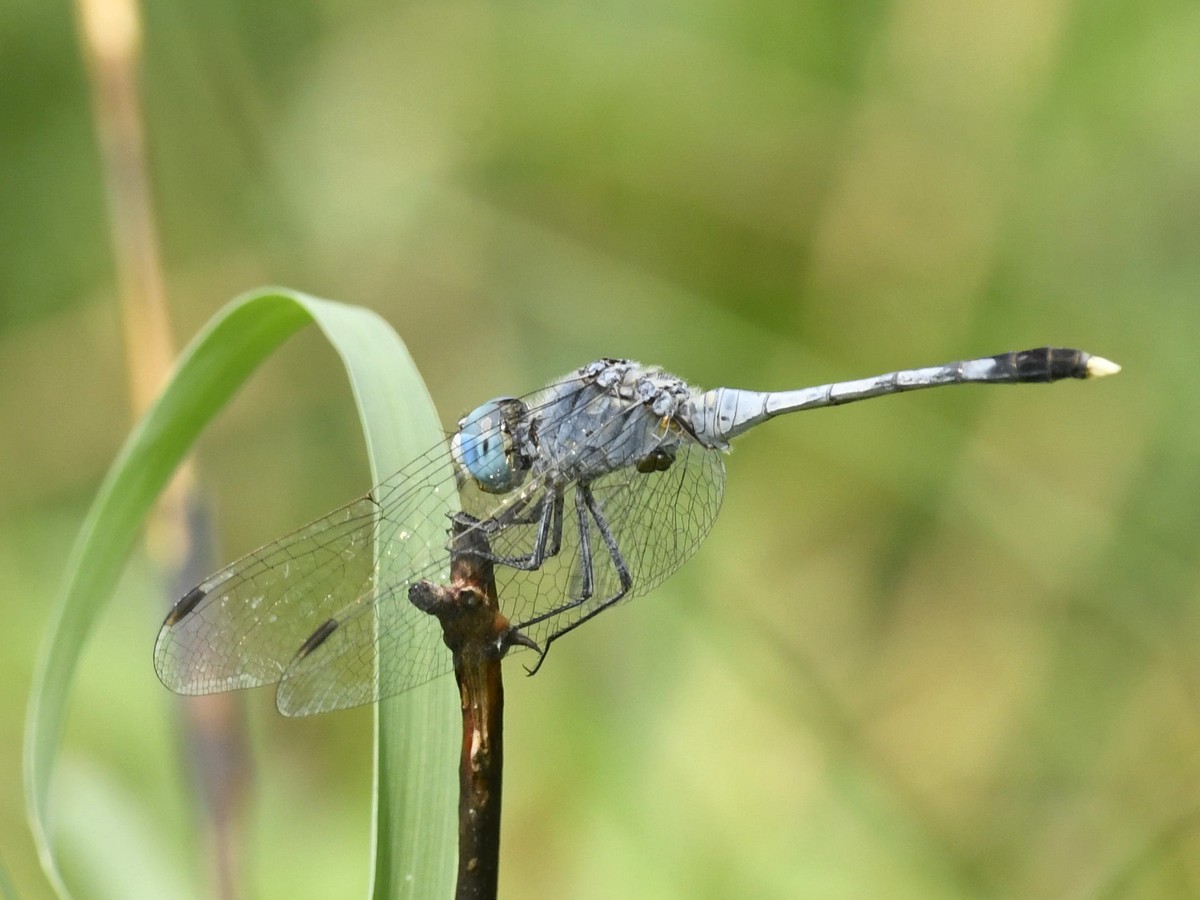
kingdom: Animalia
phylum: Arthropoda
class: Insecta
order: Odonata
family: Libellulidae
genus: Diplacodes
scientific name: Diplacodes trivialis
